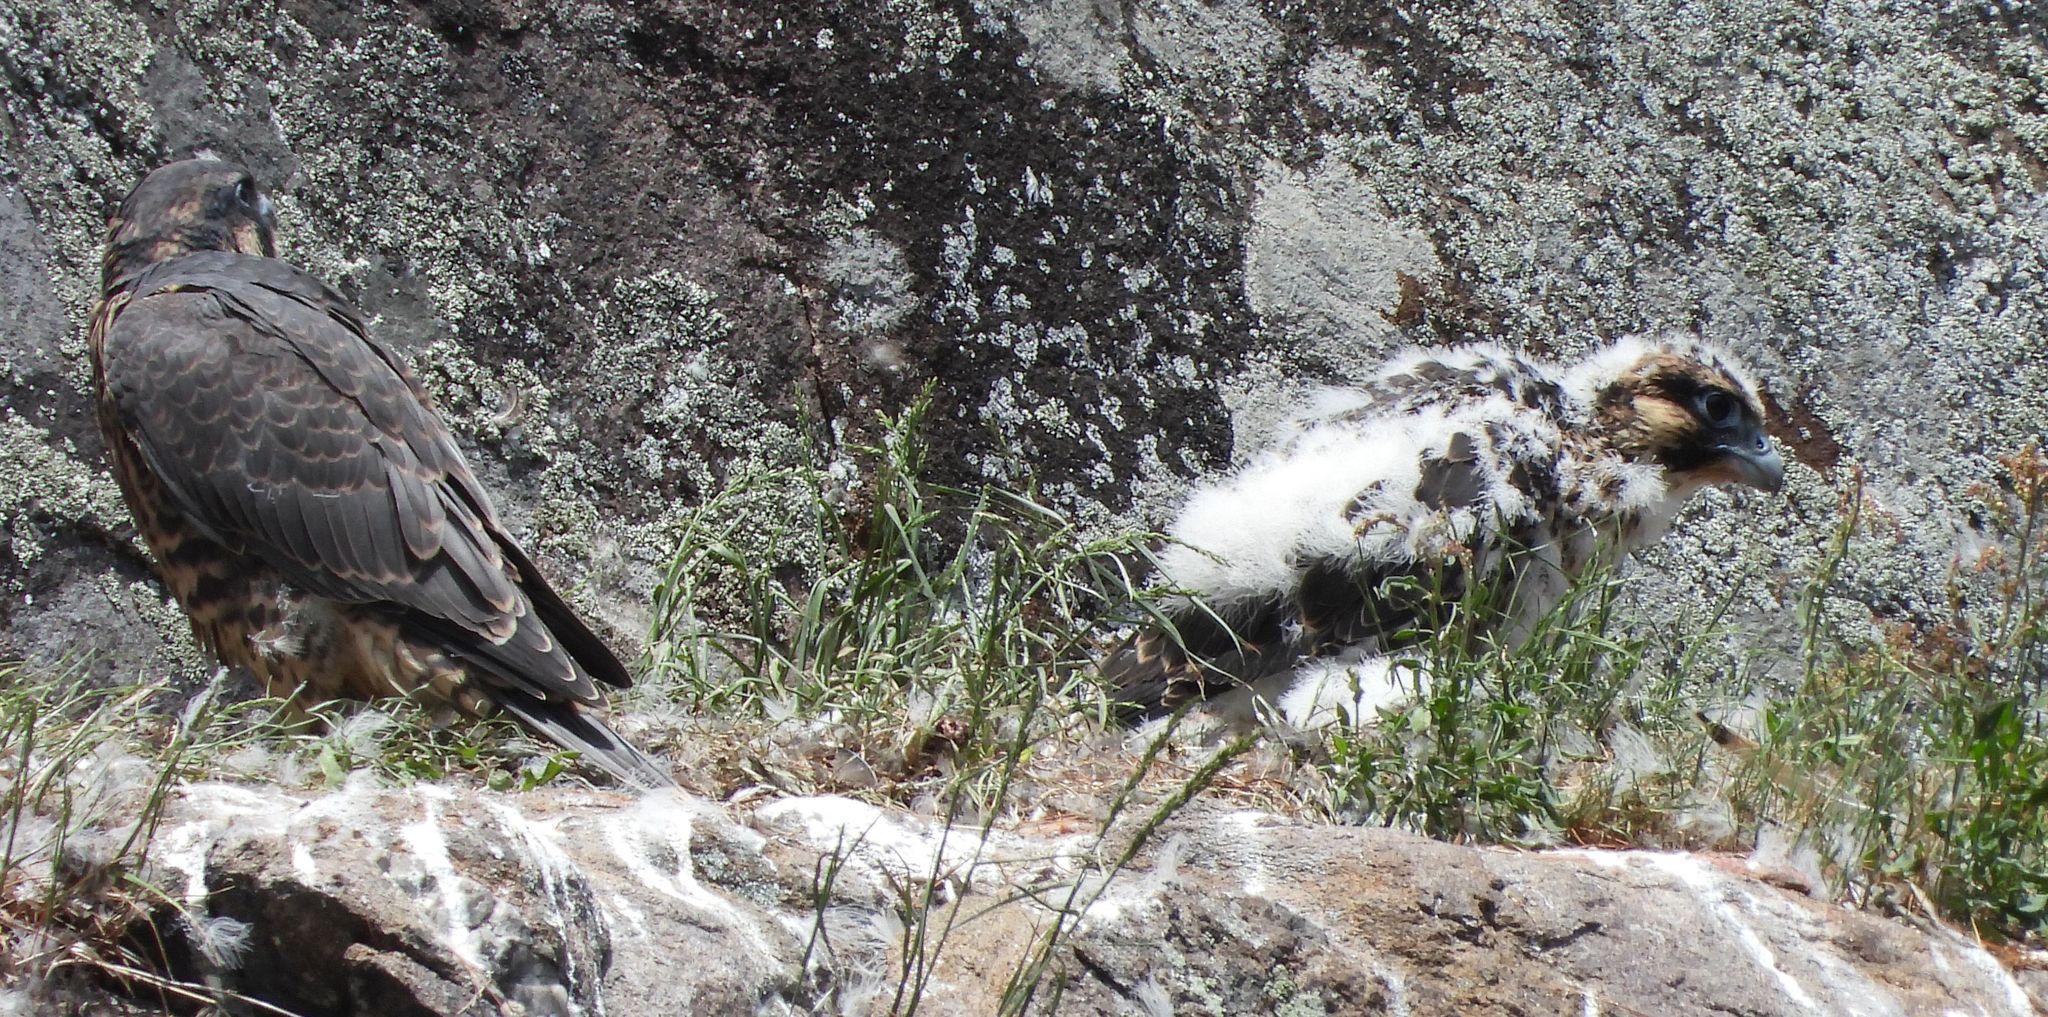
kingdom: Animalia
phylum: Chordata
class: Aves
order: Falconiformes
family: Falconidae
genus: Falco
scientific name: Falco peregrinus
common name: Peregrine falcon
